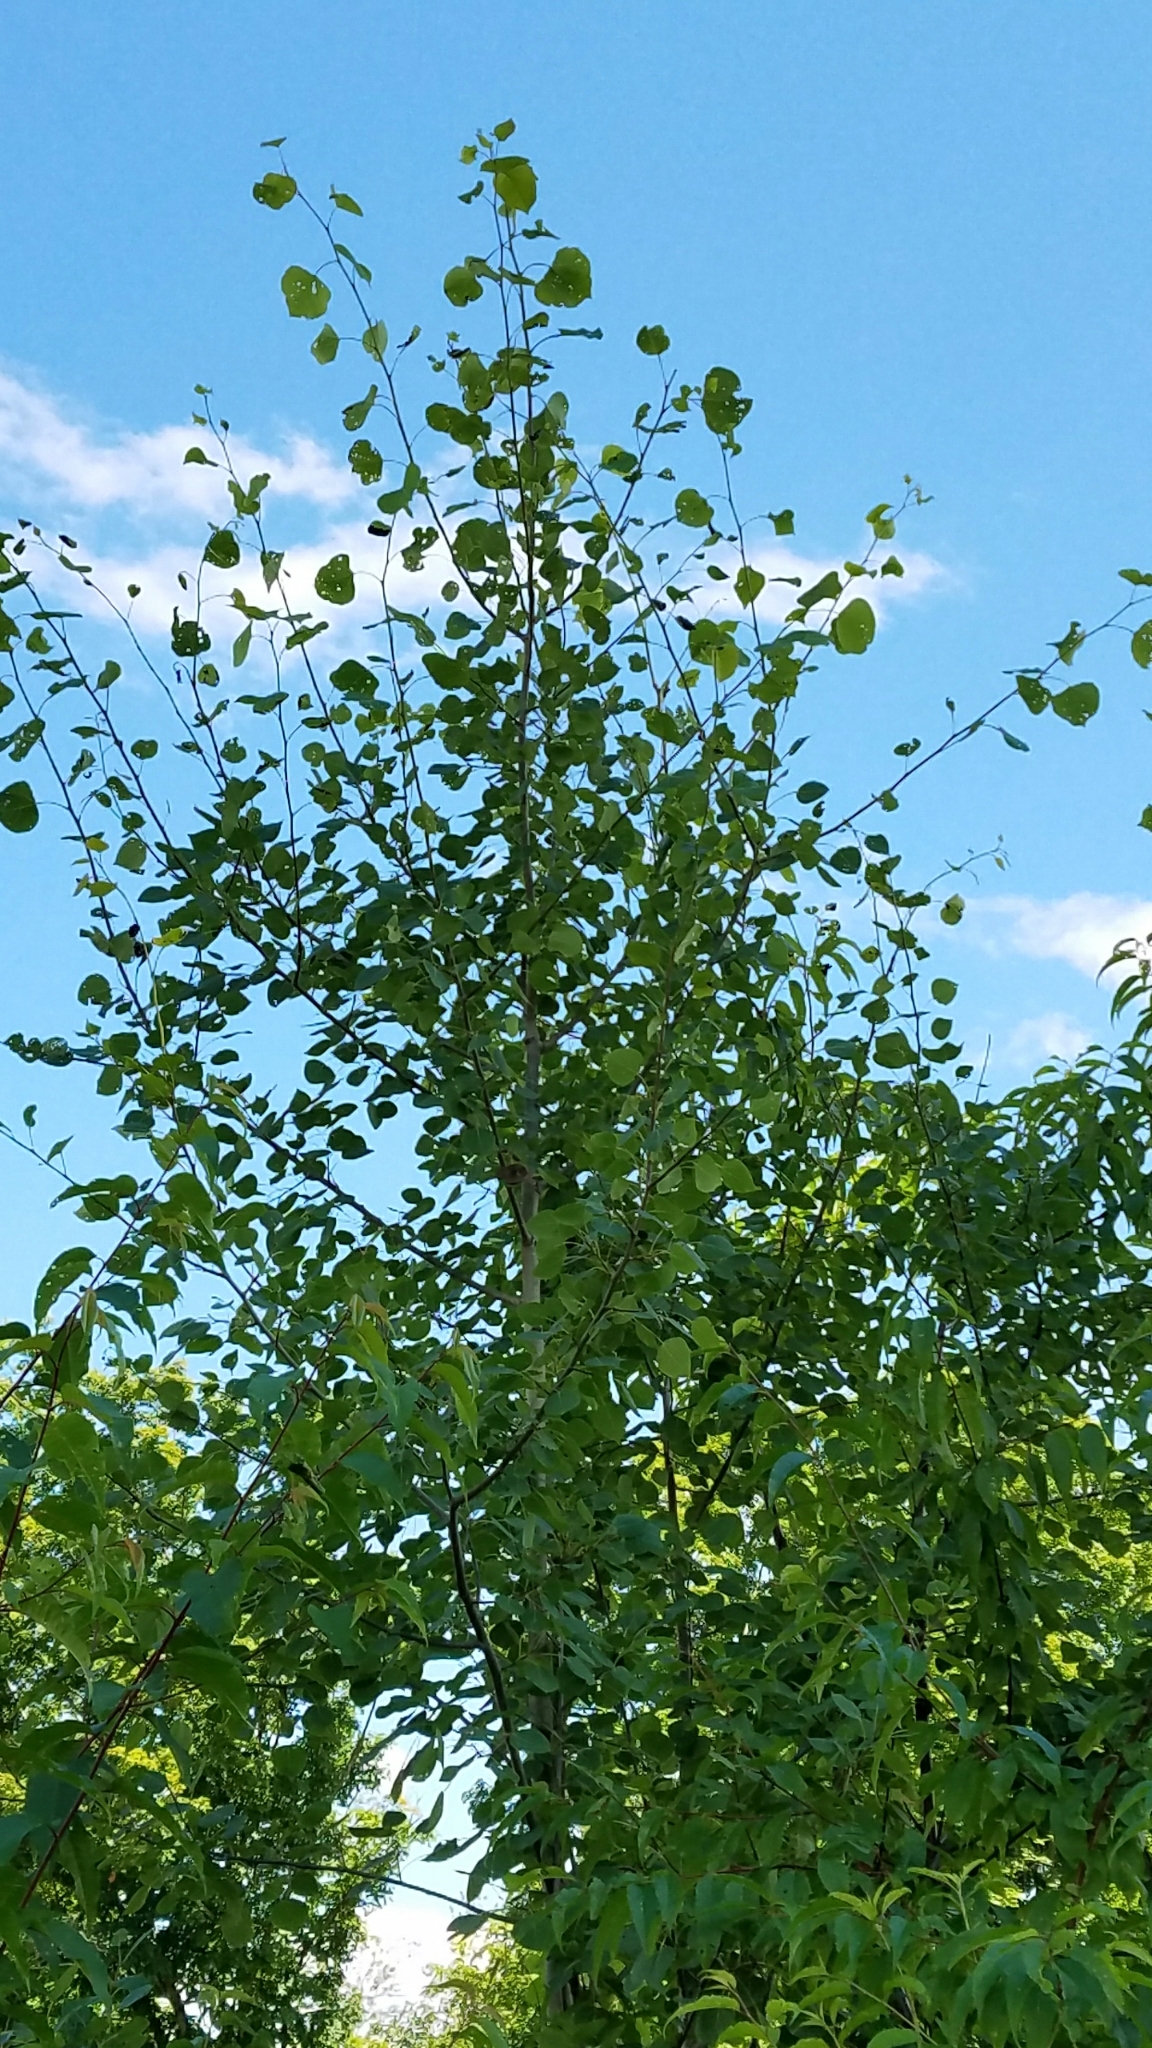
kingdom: Plantae
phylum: Tracheophyta
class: Magnoliopsida
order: Malpighiales
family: Salicaceae
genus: Populus
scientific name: Populus tremuloides
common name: Quaking aspen
